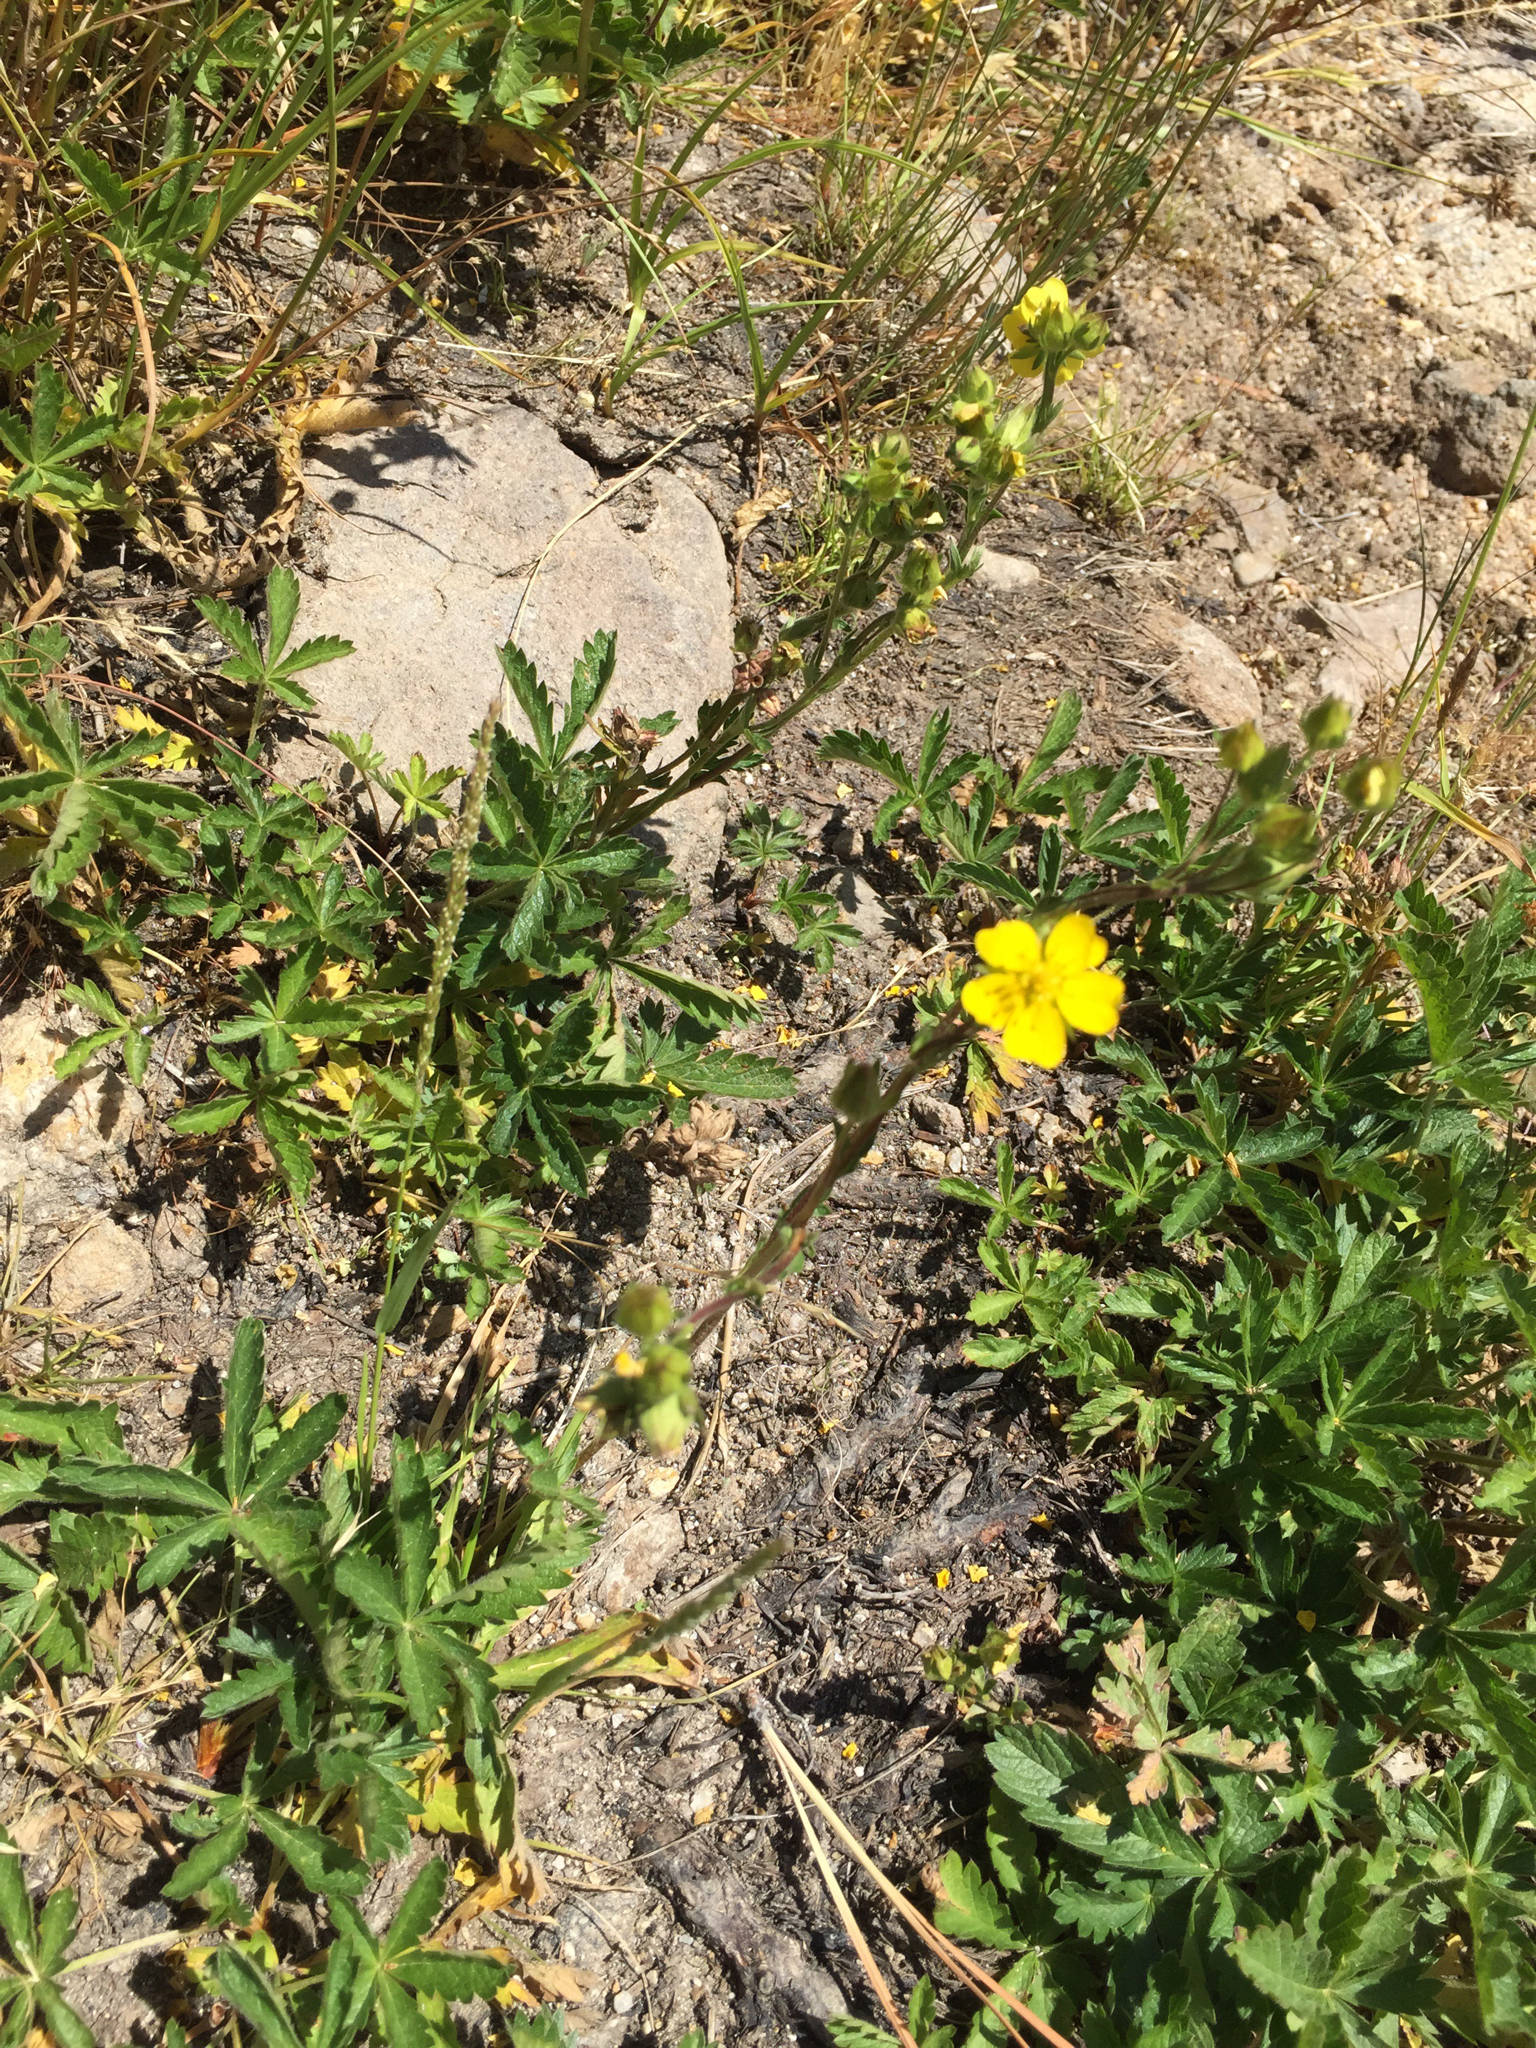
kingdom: Plantae
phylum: Tracheophyta
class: Magnoliopsida
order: Rosales
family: Rosaceae
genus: Potentilla
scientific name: Potentilla gracilis
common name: Graceful cinquefoil
